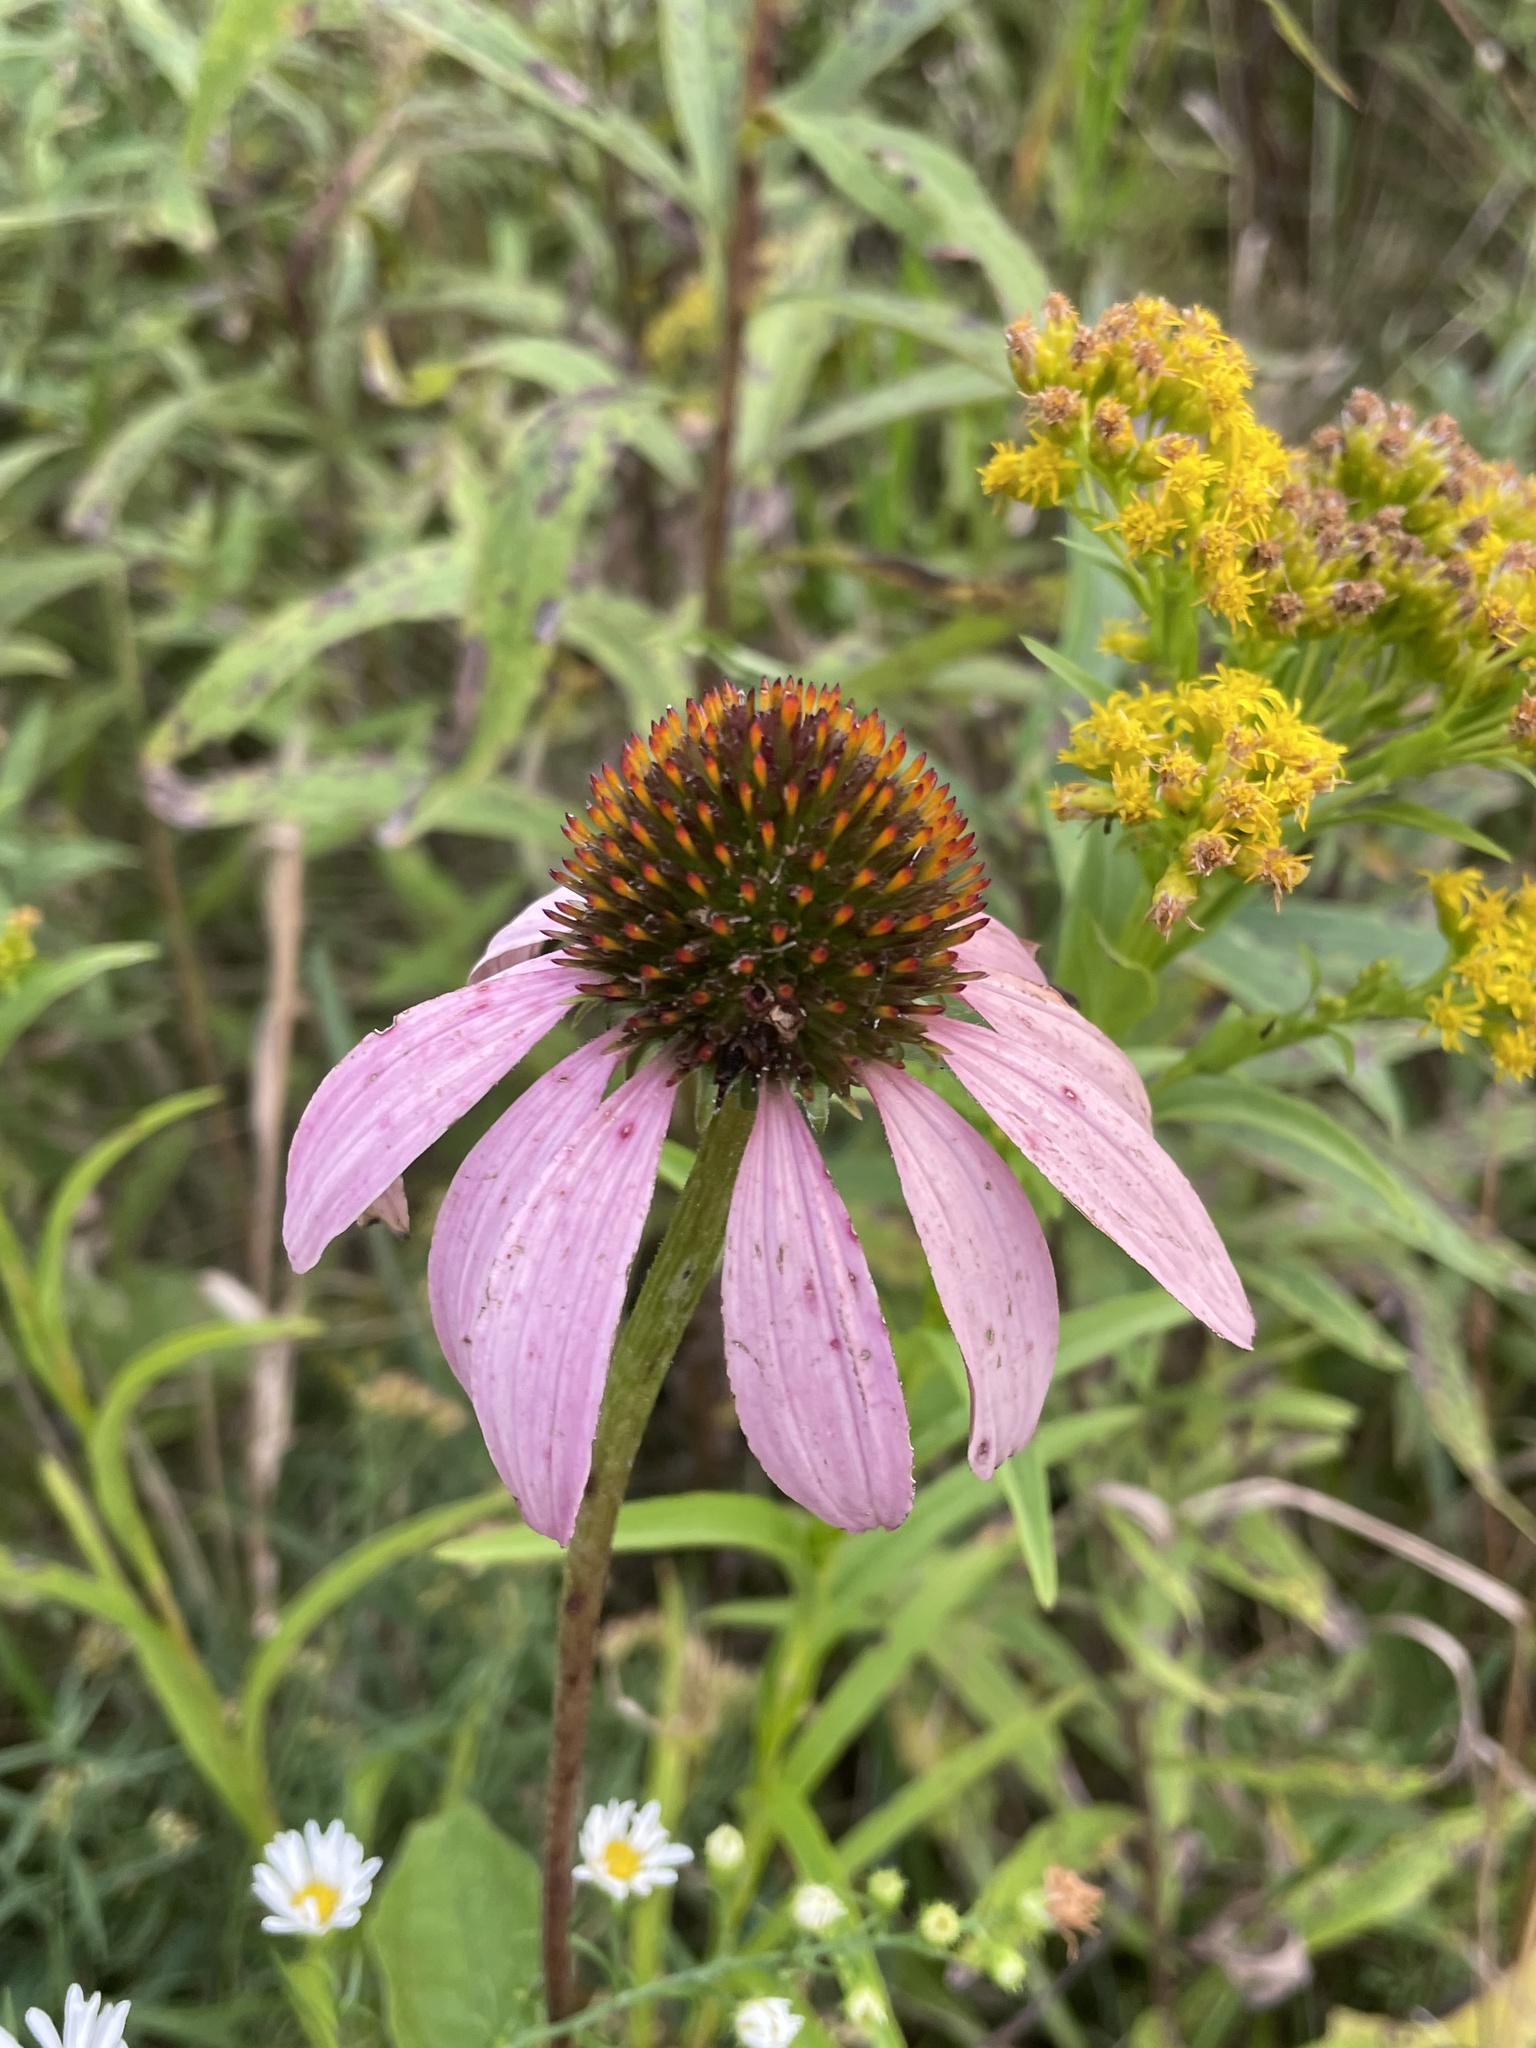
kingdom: Plantae
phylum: Tracheophyta
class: Magnoliopsida
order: Asterales
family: Asteraceae
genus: Echinacea
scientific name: Echinacea purpurea
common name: Broad-leaved purple coneflower
